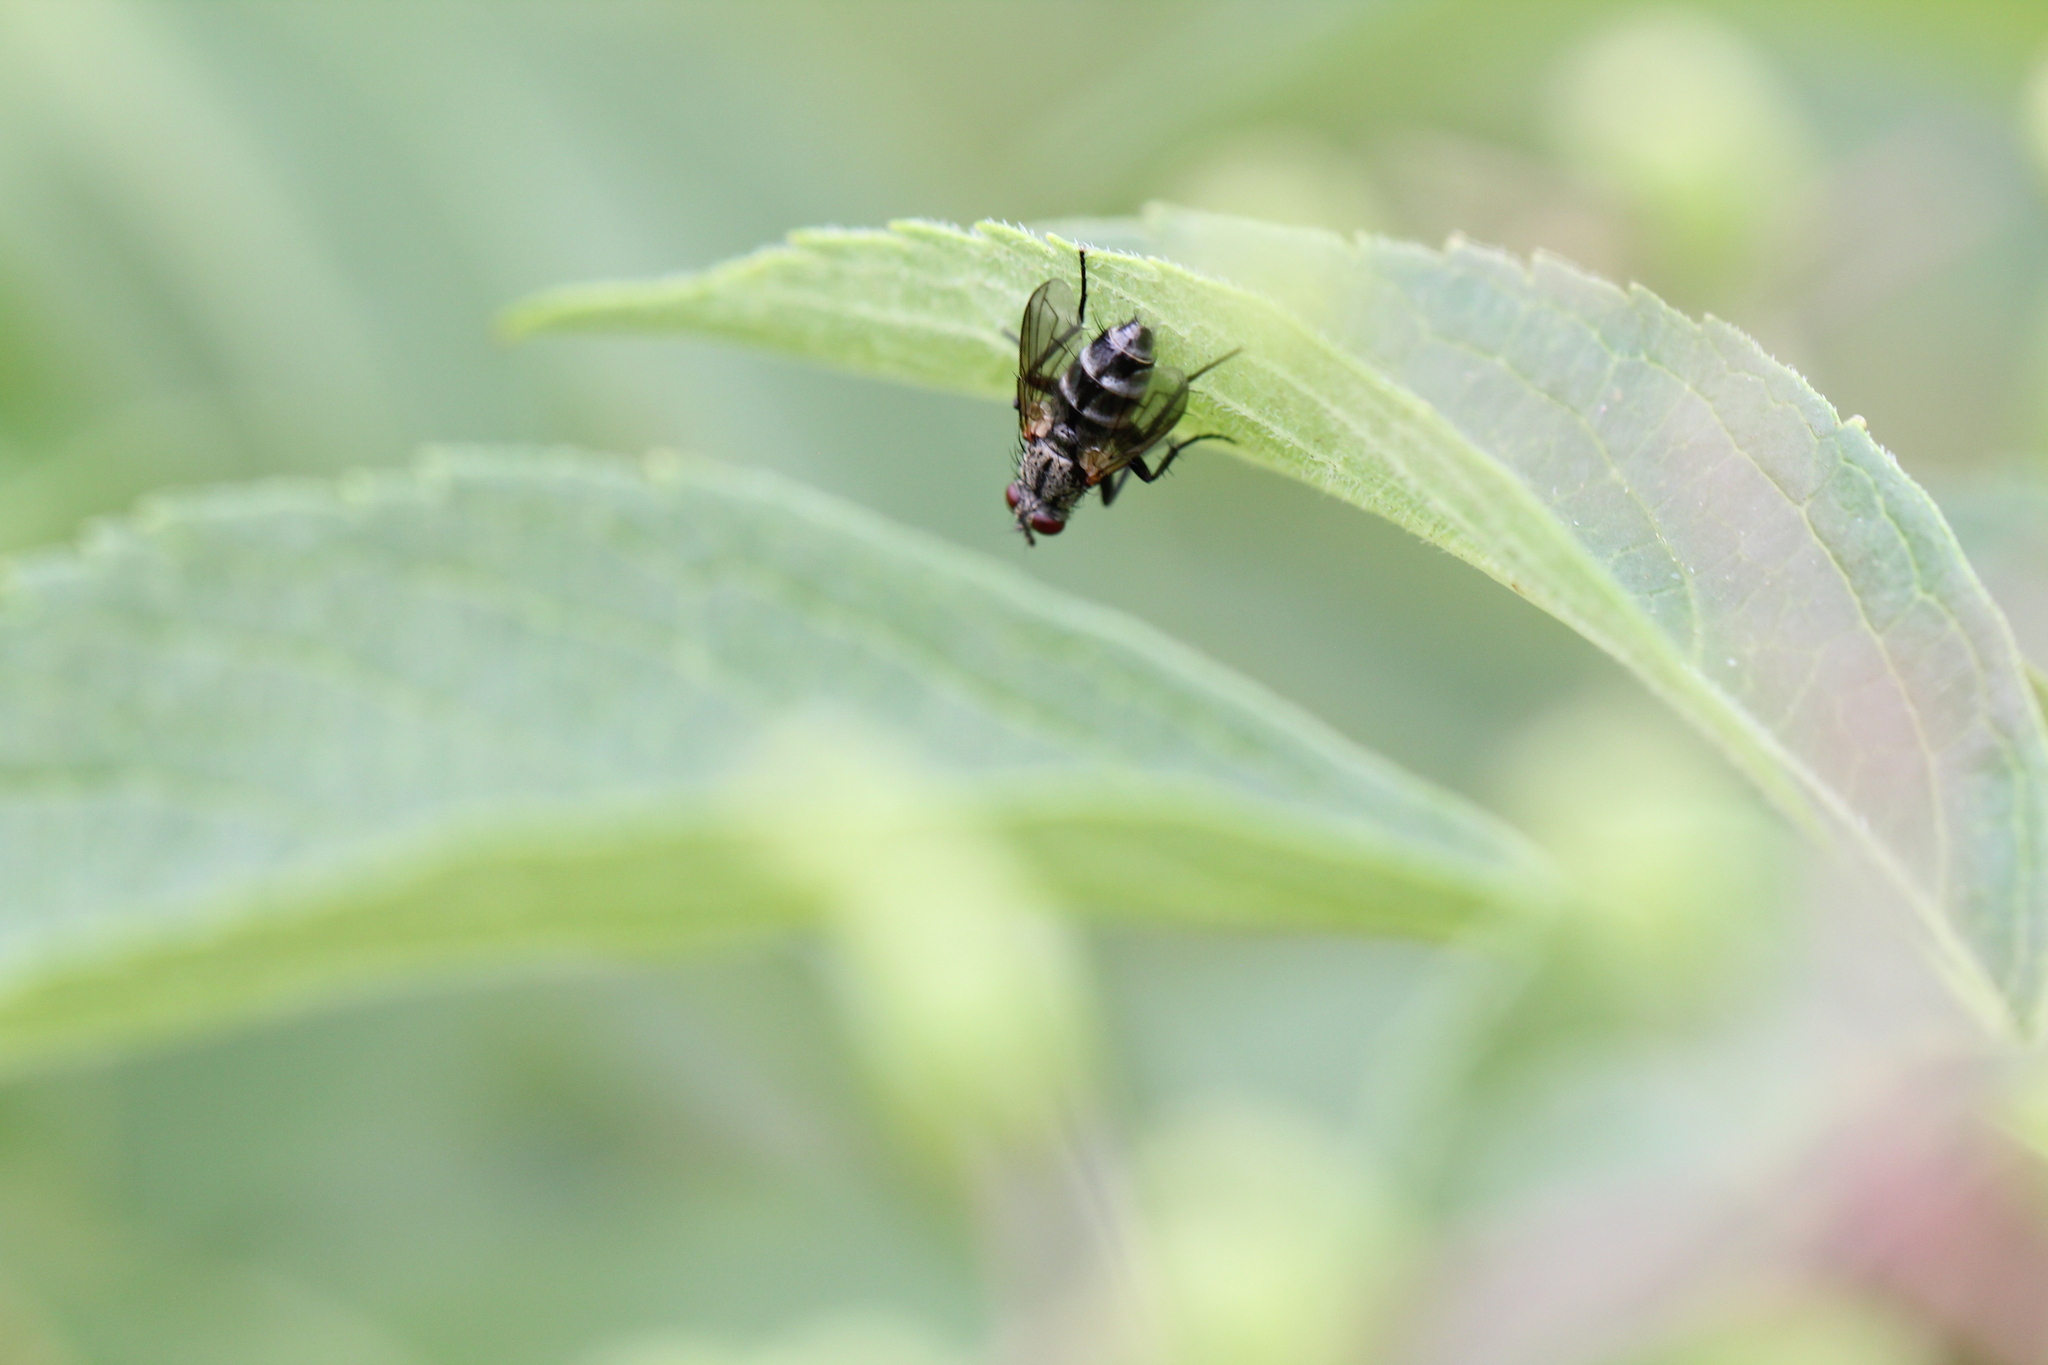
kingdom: Animalia
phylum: Arthropoda
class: Insecta
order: Diptera
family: Calliphoridae
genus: Stevenia
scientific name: Stevenia deceptoria
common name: Grizzled woodlouse-fly
